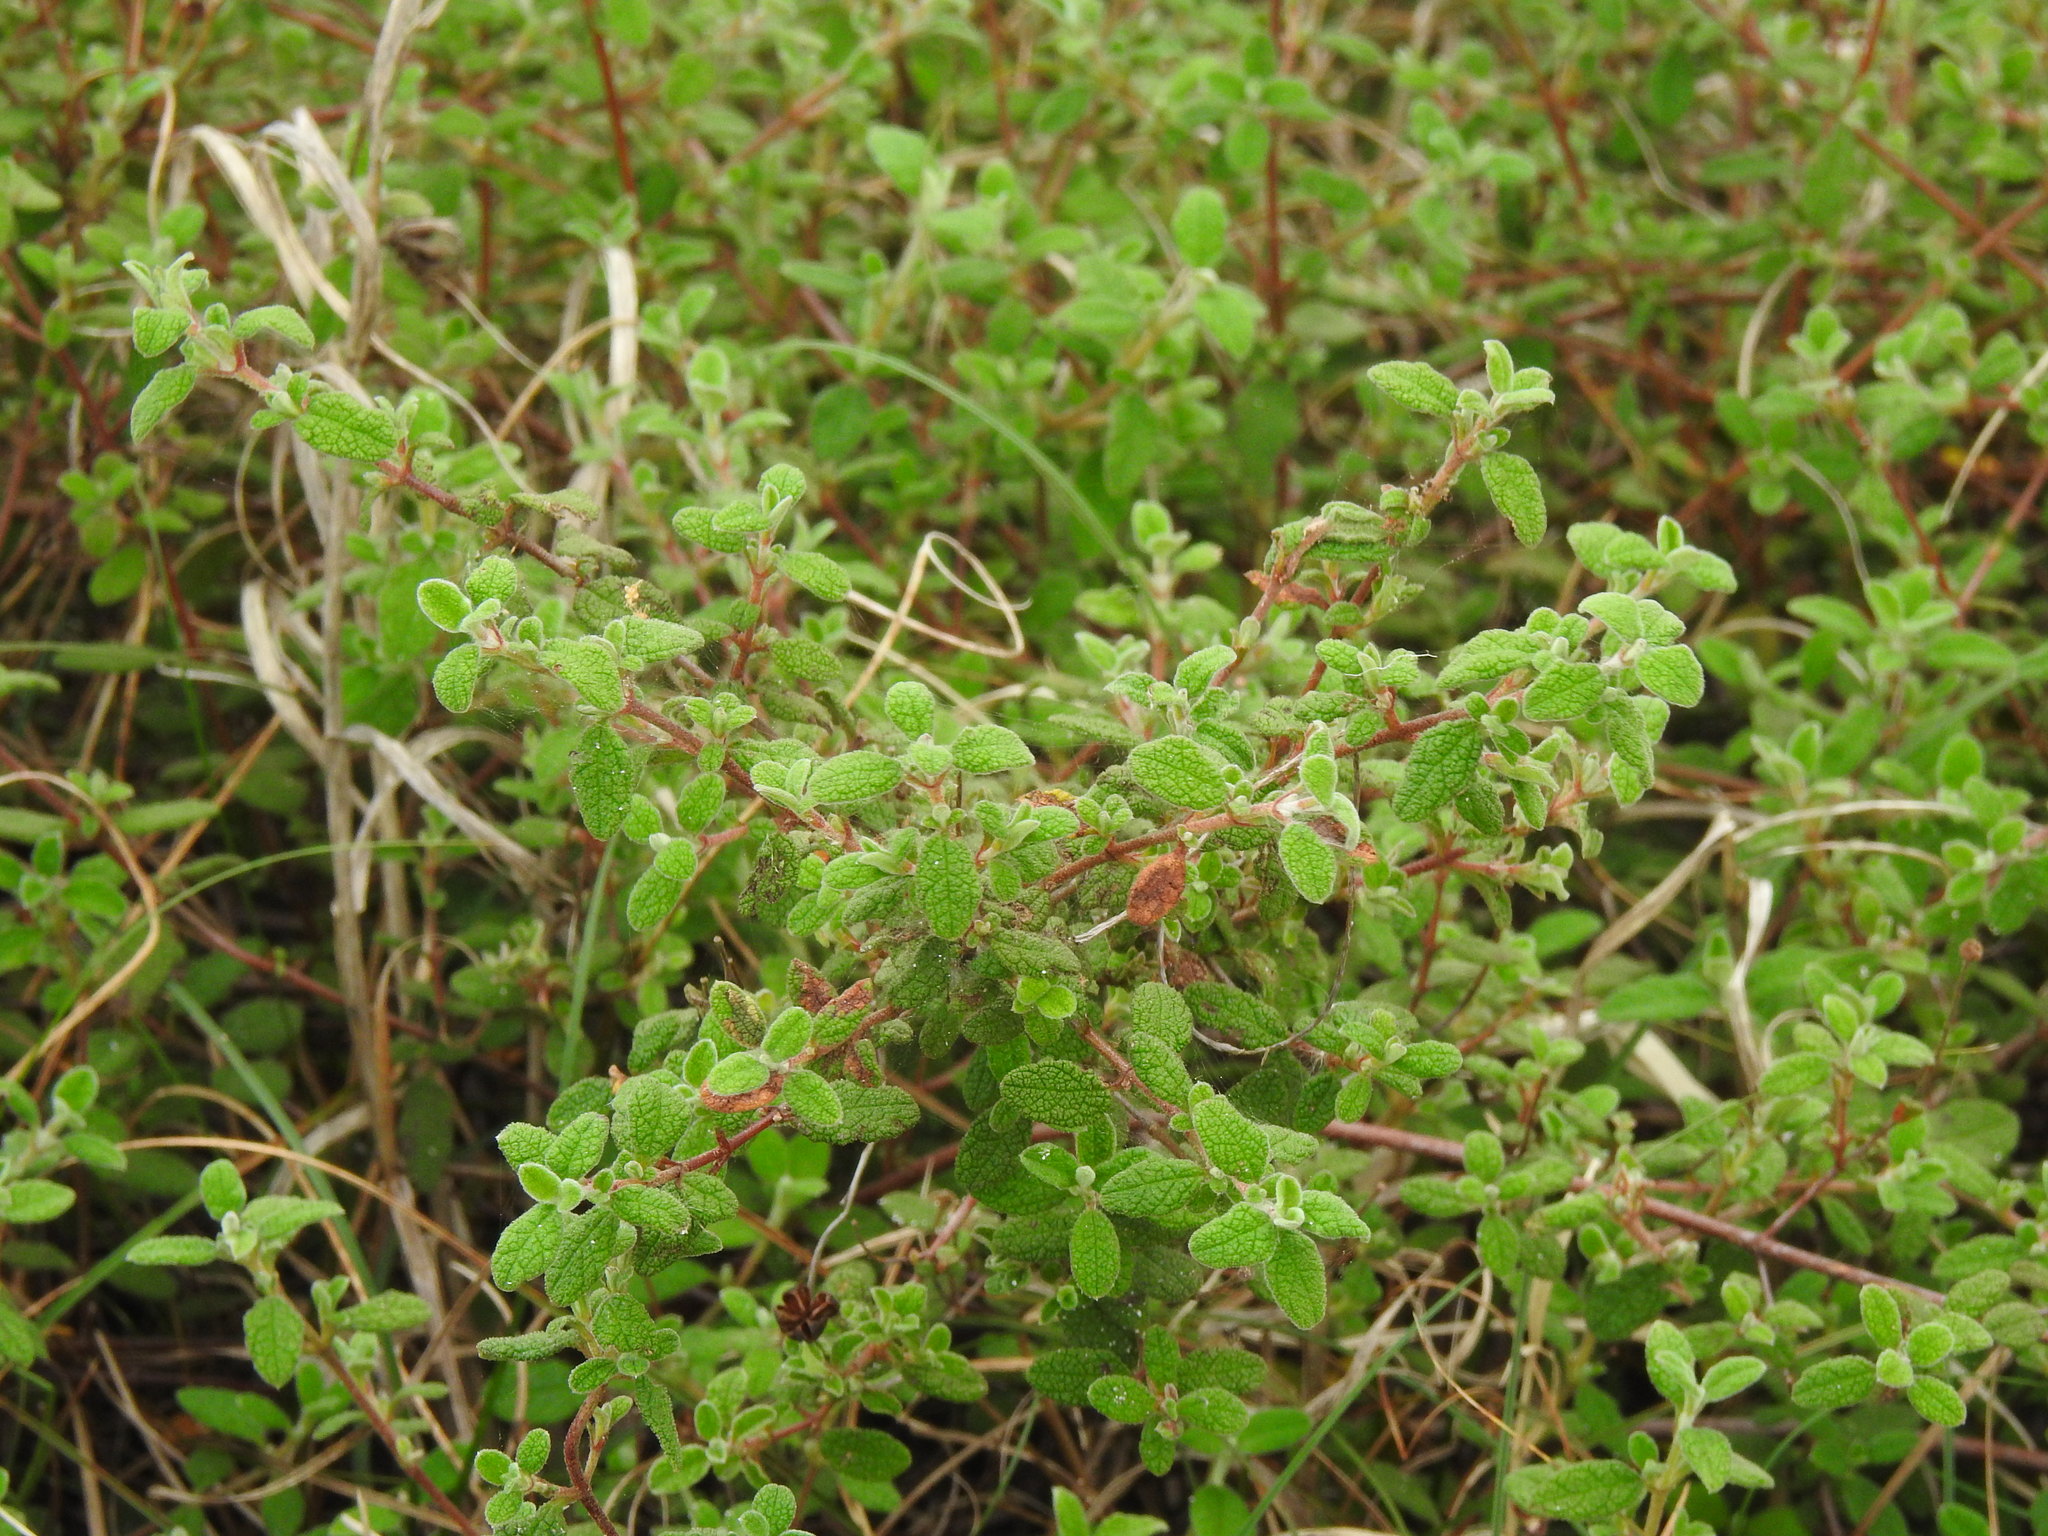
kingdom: Plantae
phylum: Tracheophyta
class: Magnoliopsida
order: Malvales
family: Cistaceae
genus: Cistus
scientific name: Cistus salviifolius
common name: Salvia cistus
